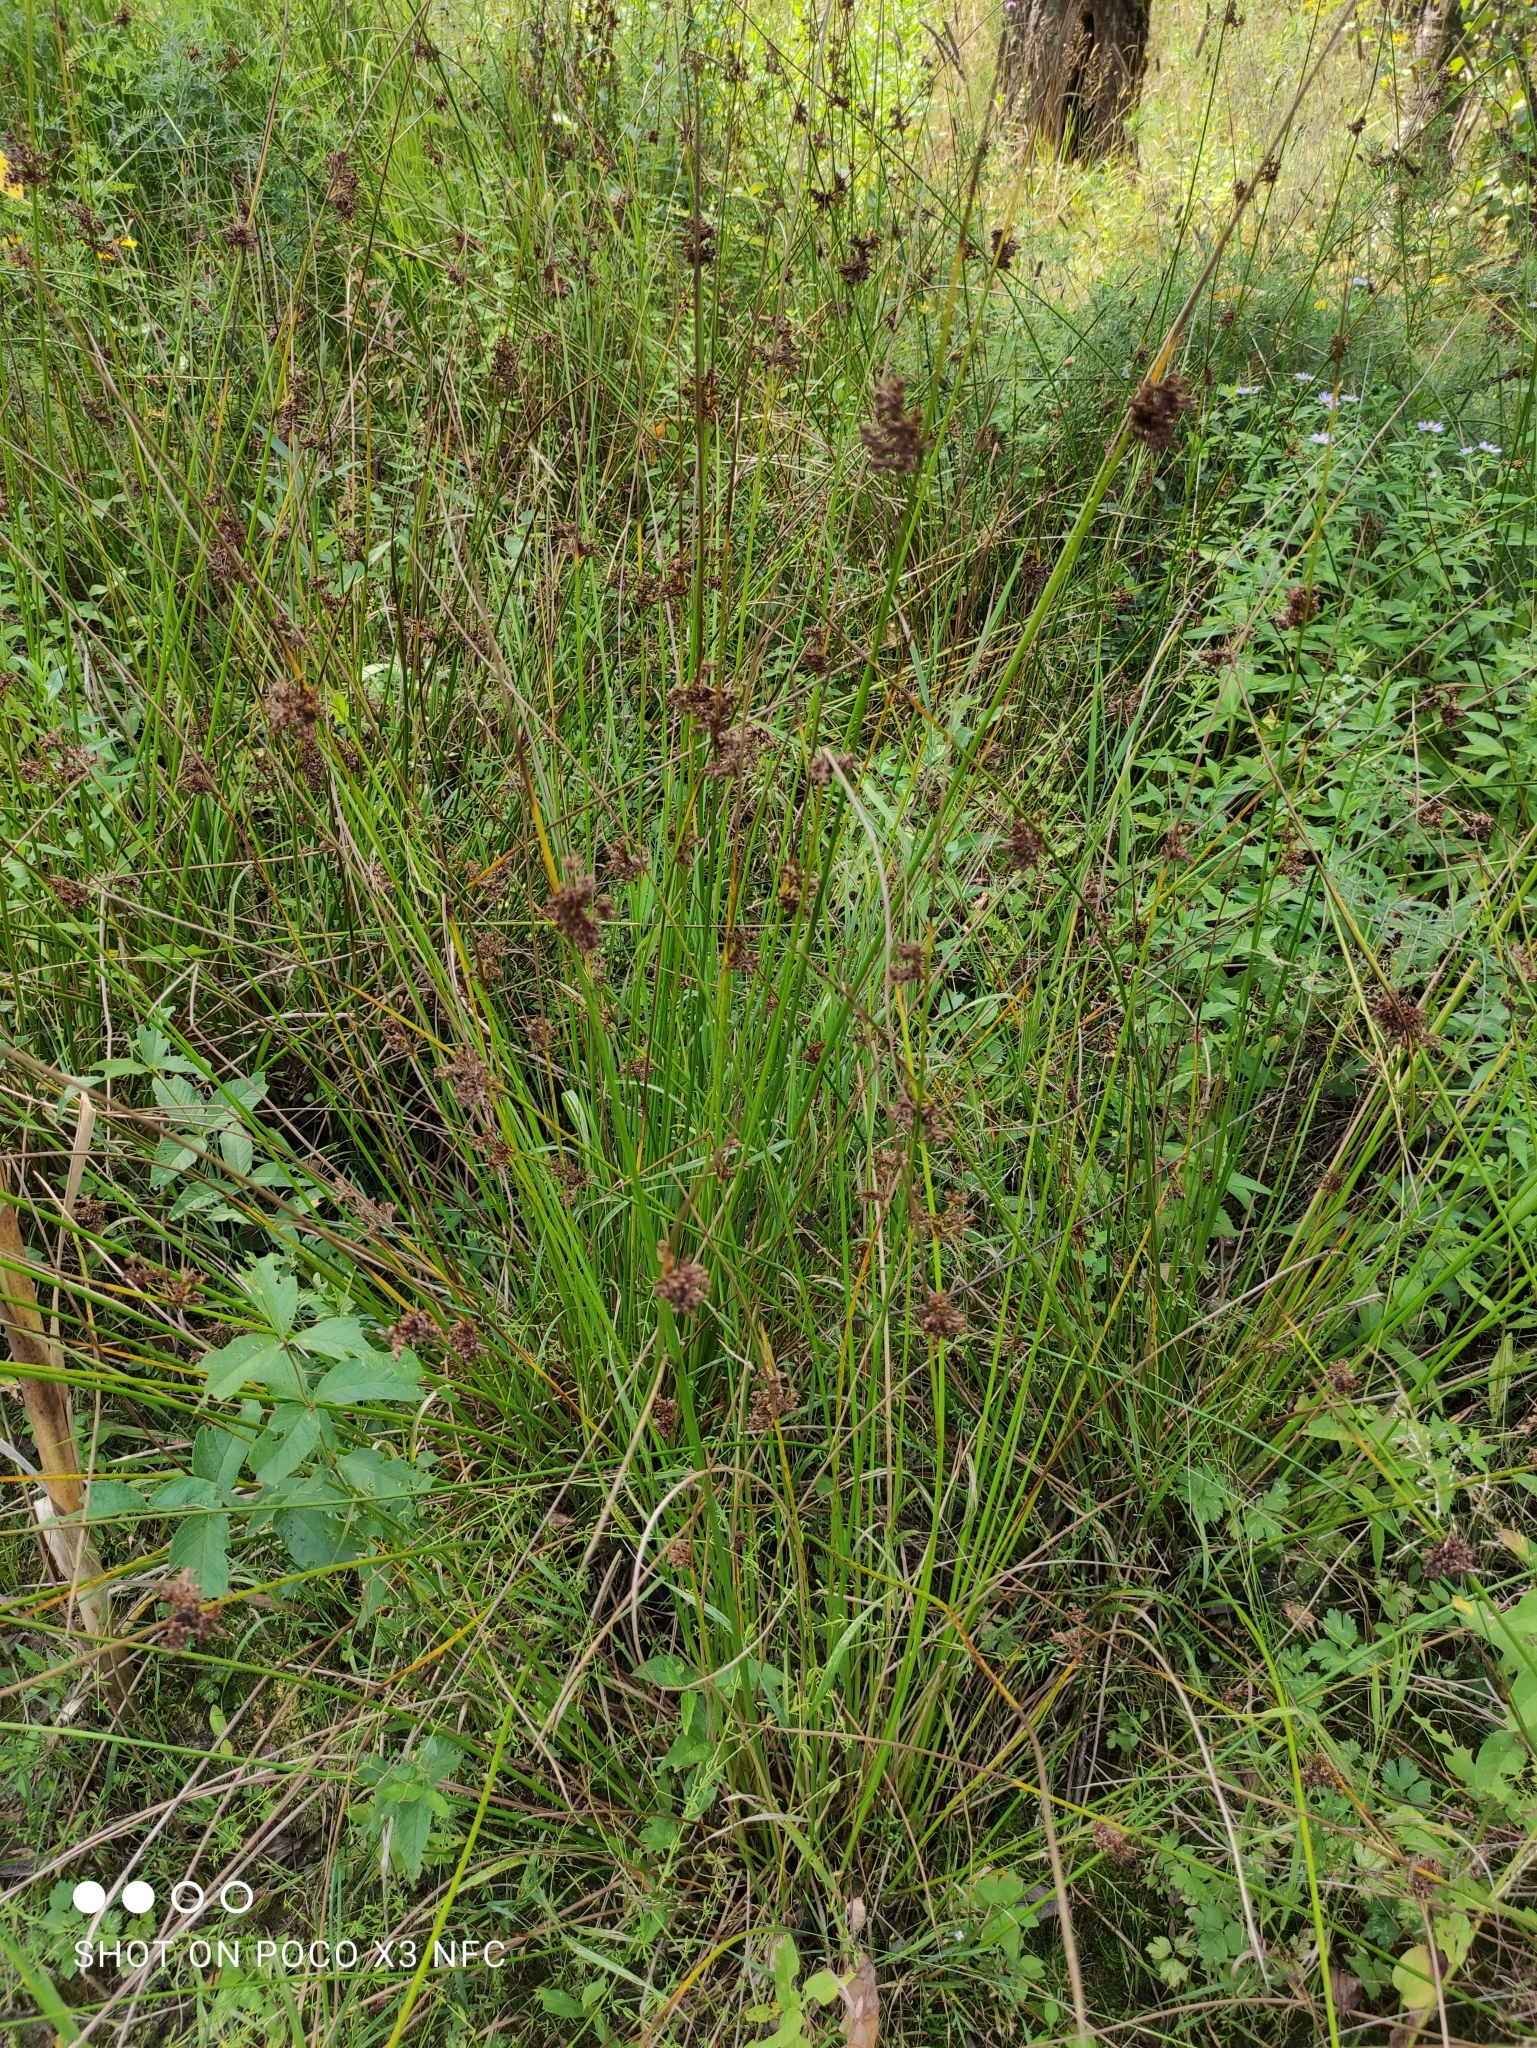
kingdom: Plantae
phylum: Tracheophyta
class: Liliopsida
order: Poales
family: Juncaceae
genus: Juncus
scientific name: Juncus effusus
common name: Soft rush
